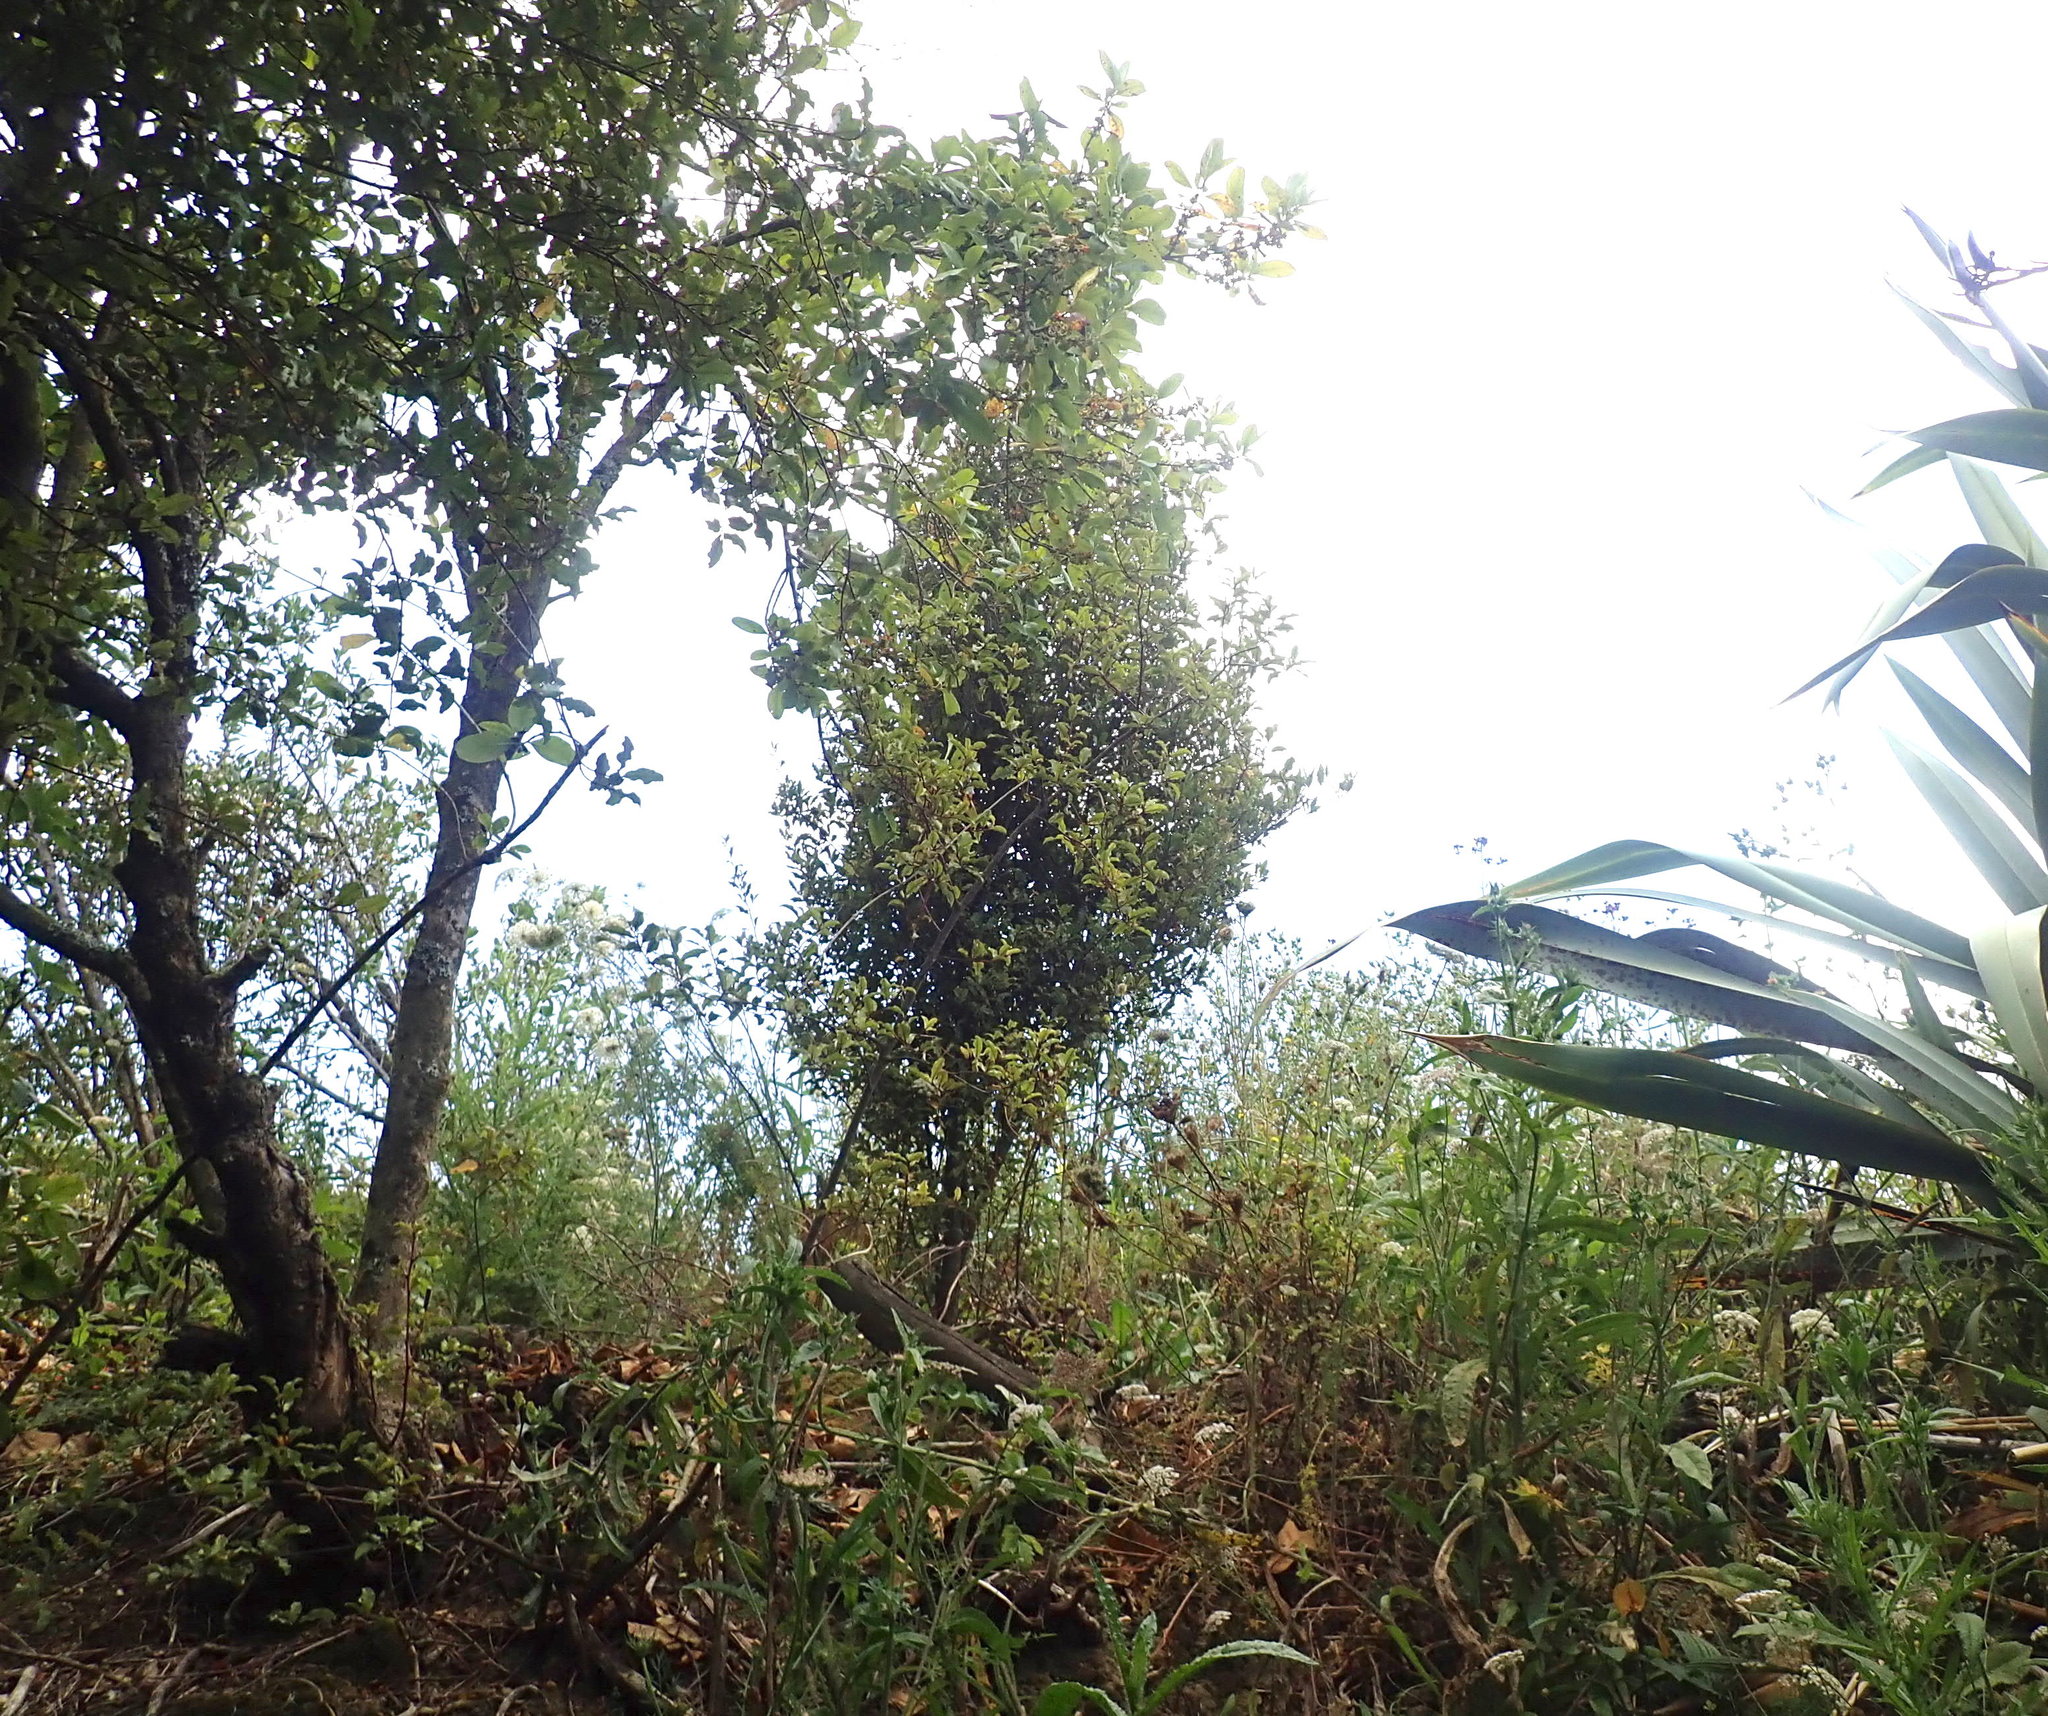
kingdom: Plantae
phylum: Tracheophyta
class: Magnoliopsida
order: Ericales
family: Primulaceae
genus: Myrsine
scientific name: Myrsine australis
